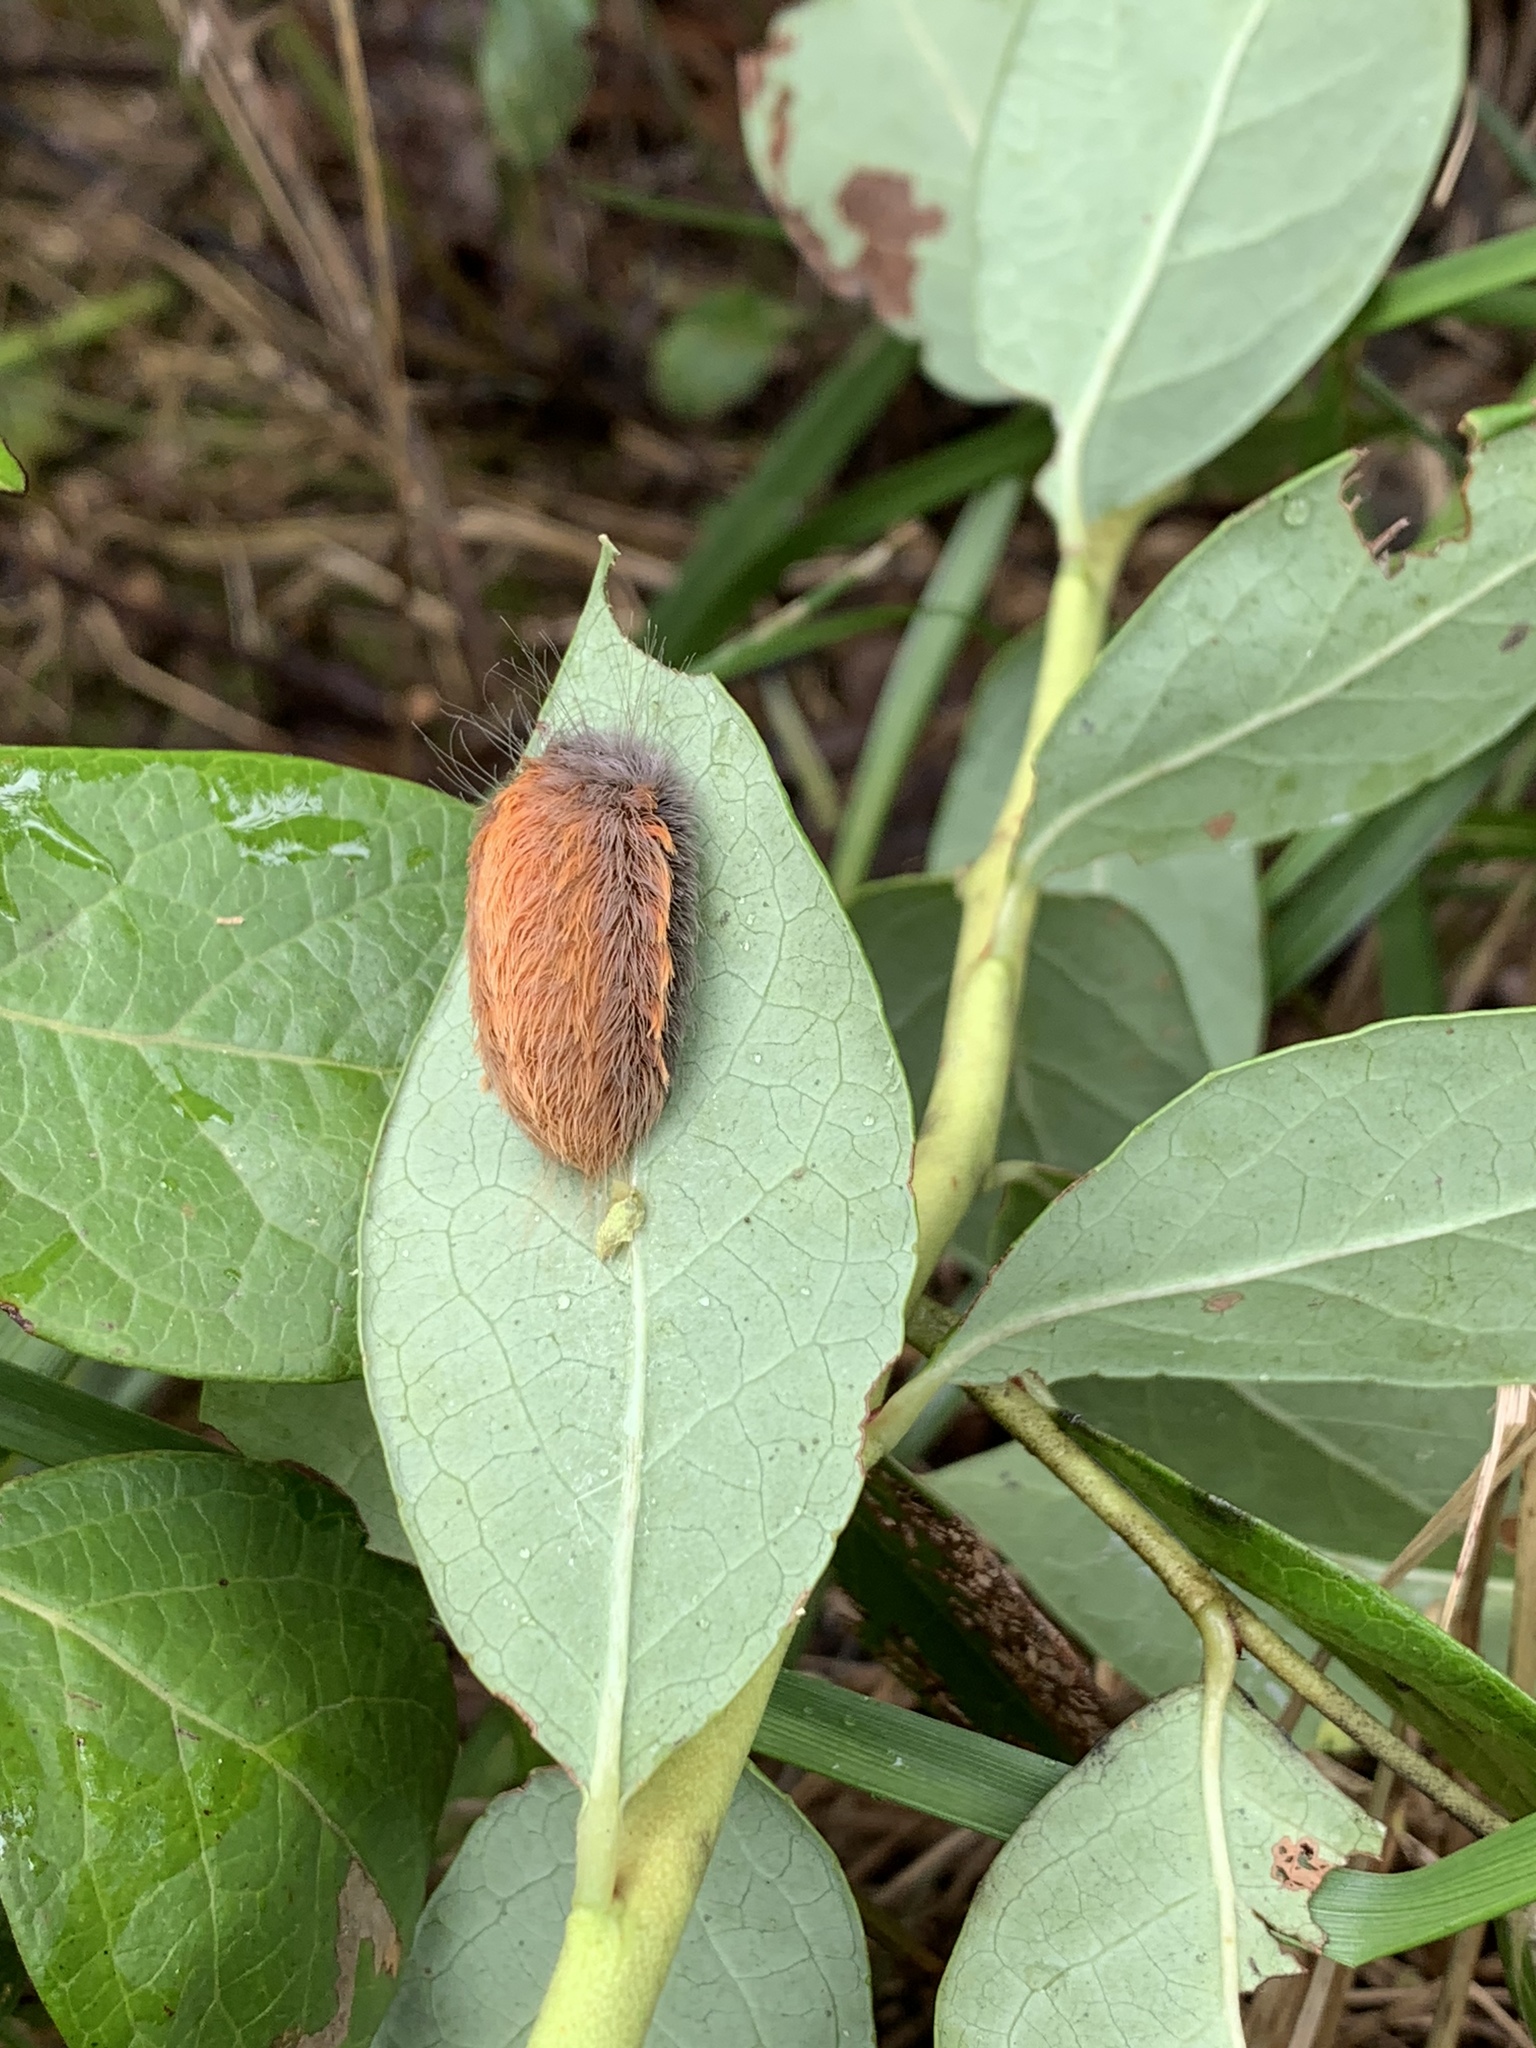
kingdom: Animalia
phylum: Arthropoda
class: Insecta
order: Lepidoptera
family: Megalopygidae
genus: Megalopyge
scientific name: Megalopyge crispata
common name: Black-waved flannel moth
